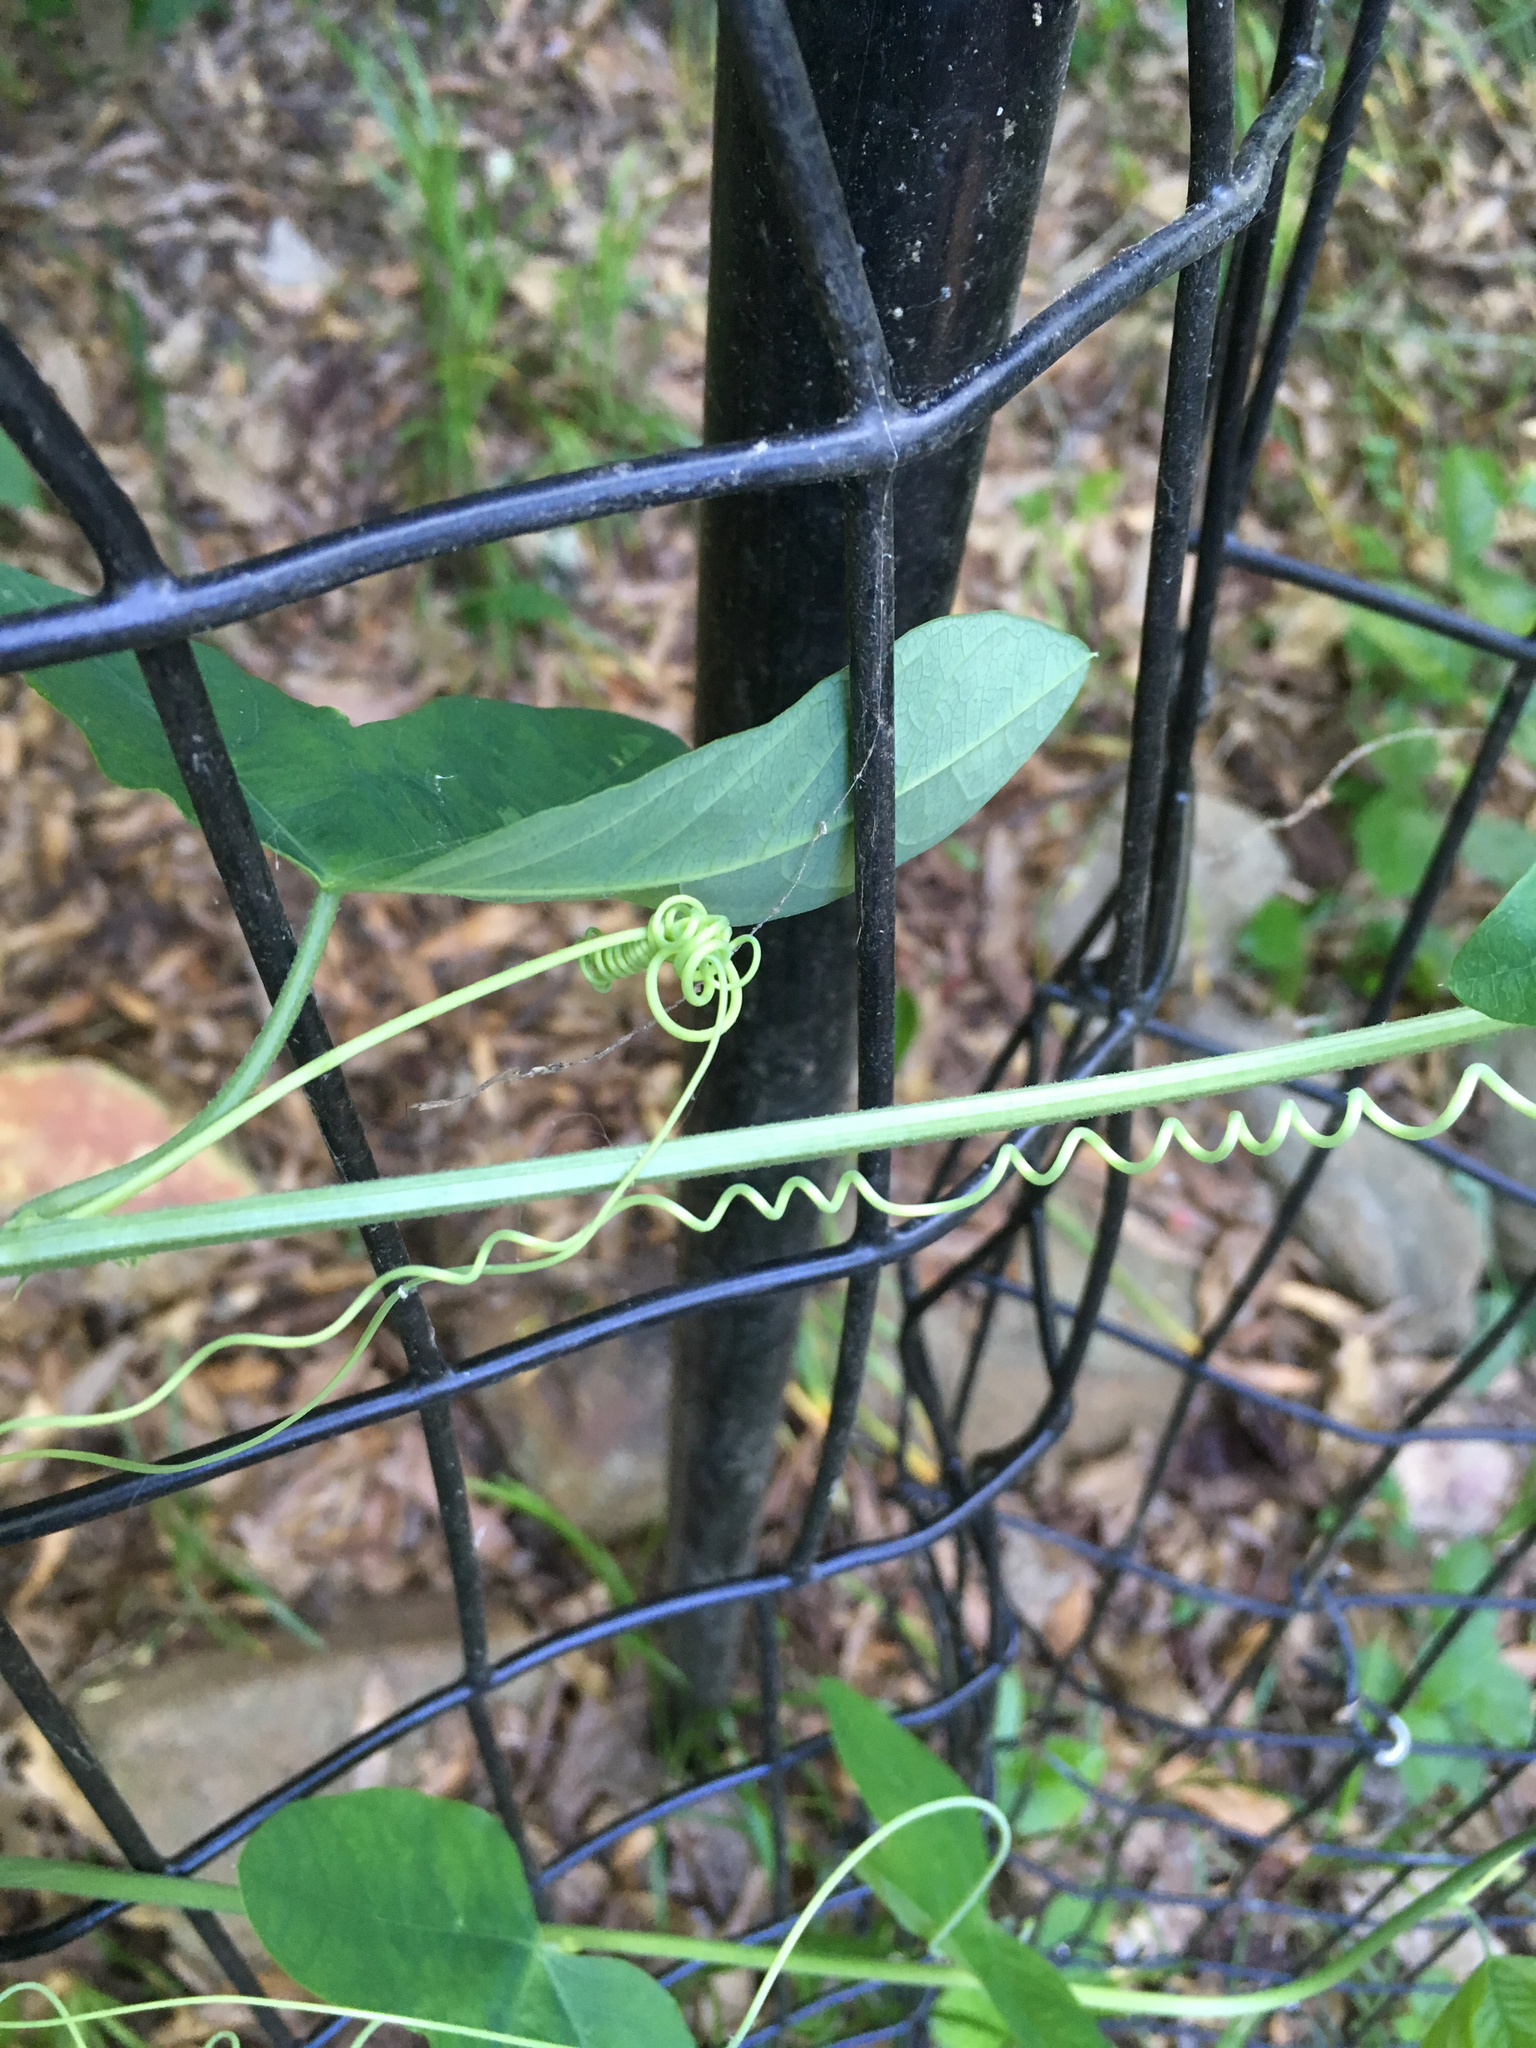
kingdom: Plantae
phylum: Tracheophyta
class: Magnoliopsida
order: Malpighiales
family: Passifloraceae
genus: Passiflora
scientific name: Passiflora lutea
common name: Yellow passionflower
